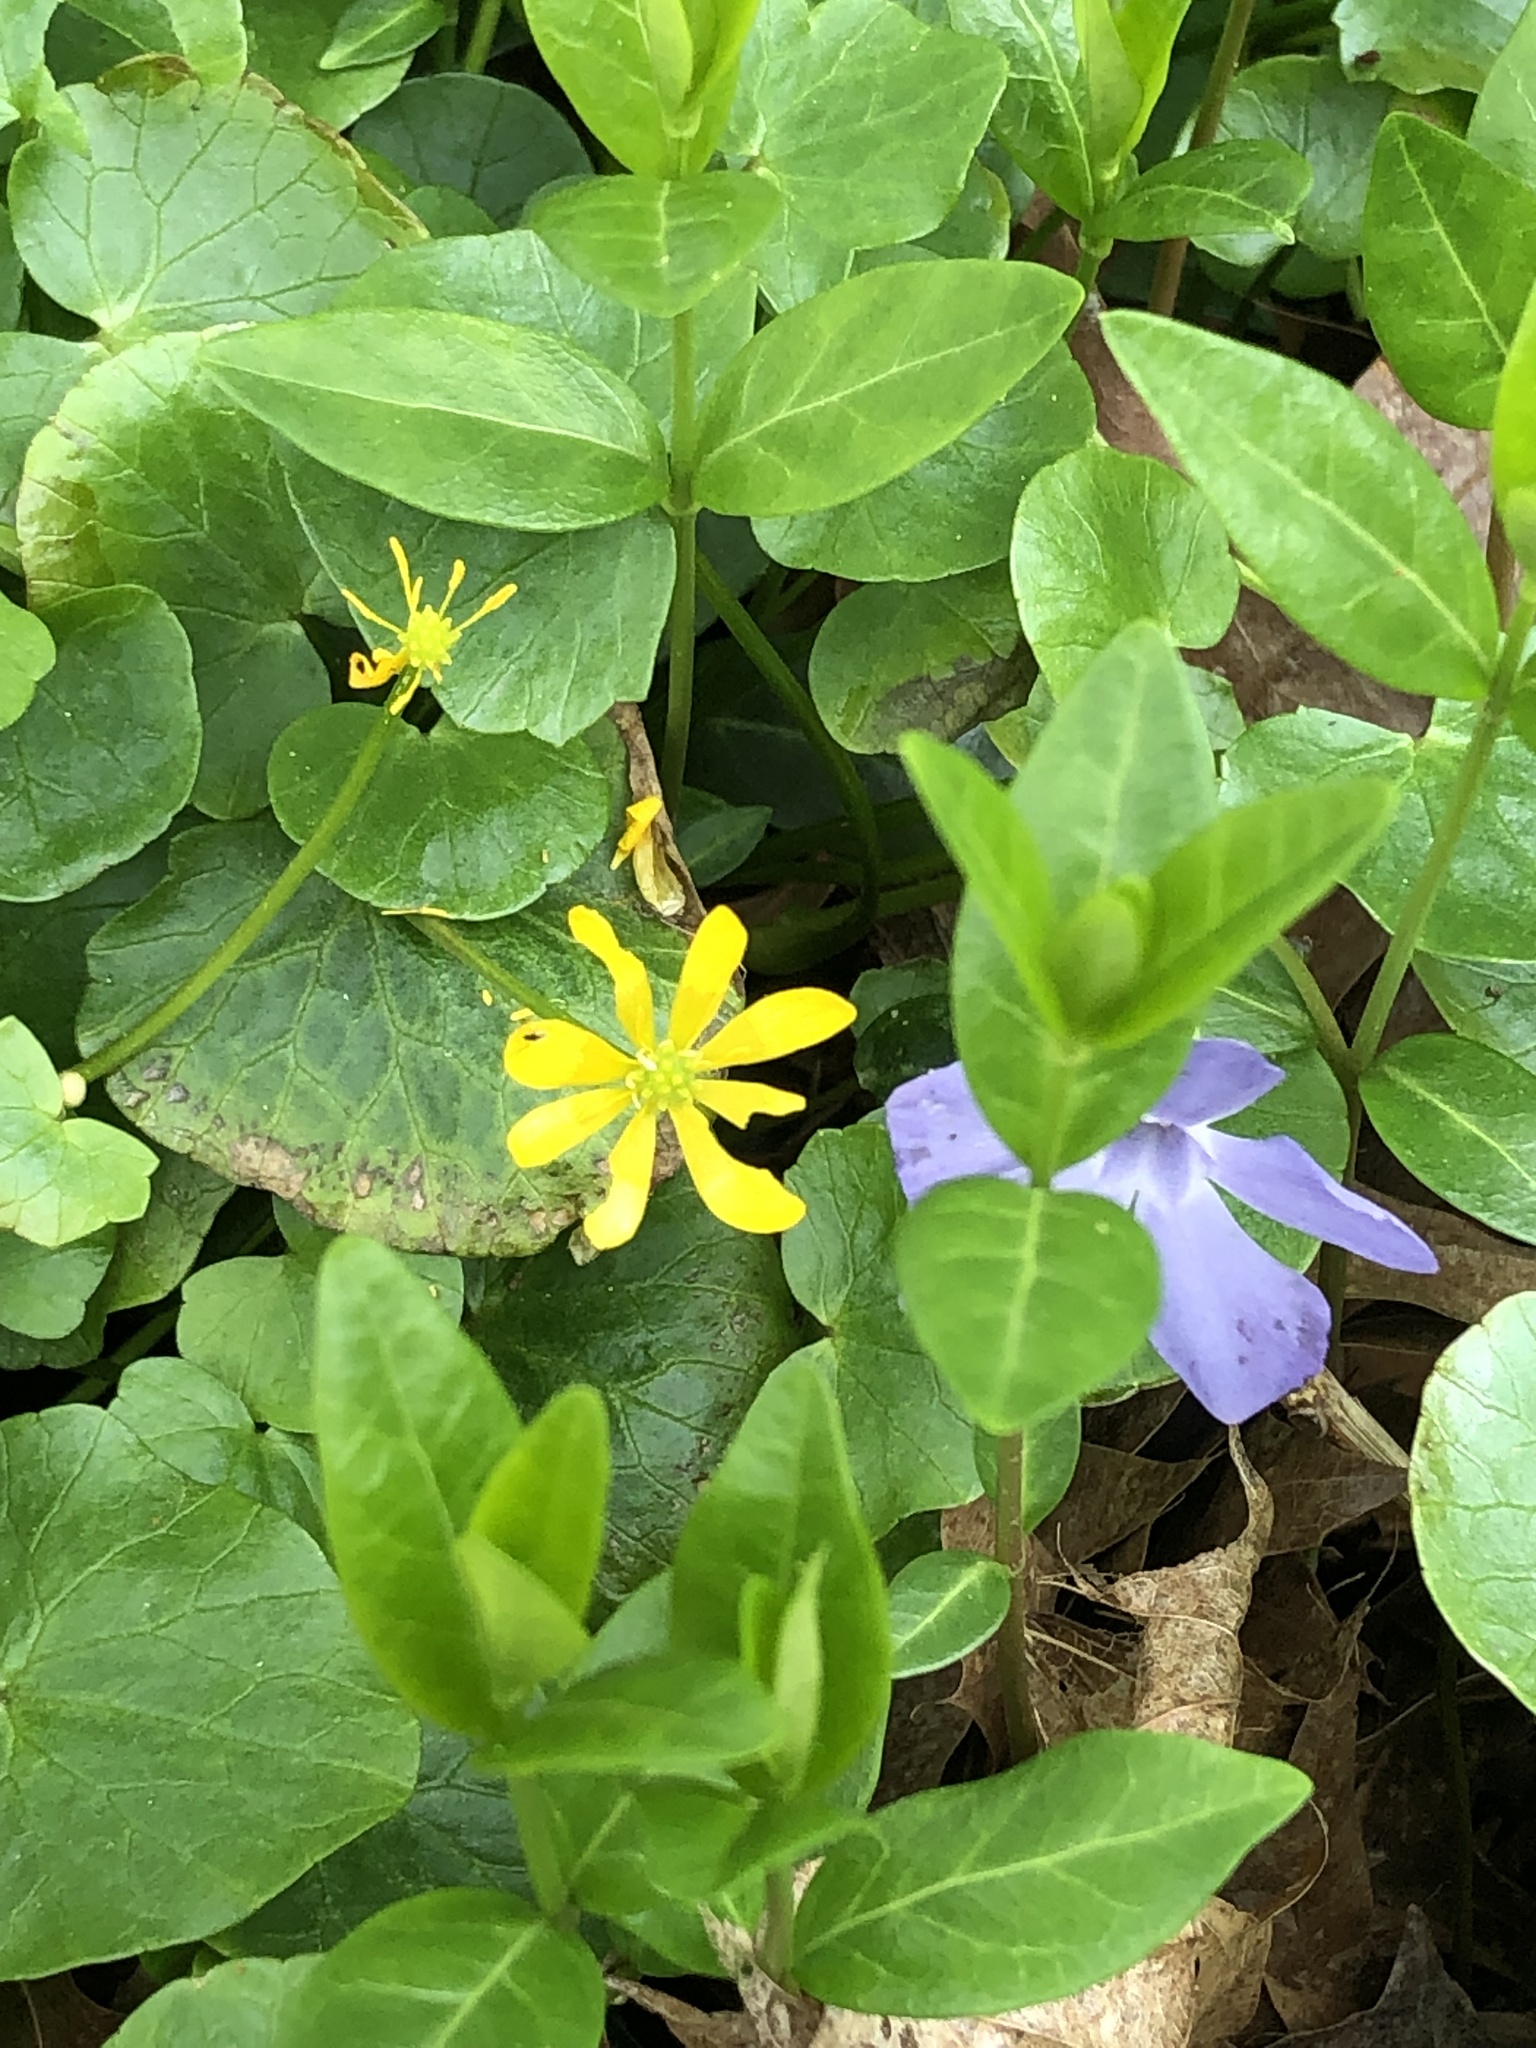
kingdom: Plantae
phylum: Tracheophyta
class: Magnoliopsida
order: Ranunculales
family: Ranunculaceae
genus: Ficaria
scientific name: Ficaria verna
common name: Lesser celandine
